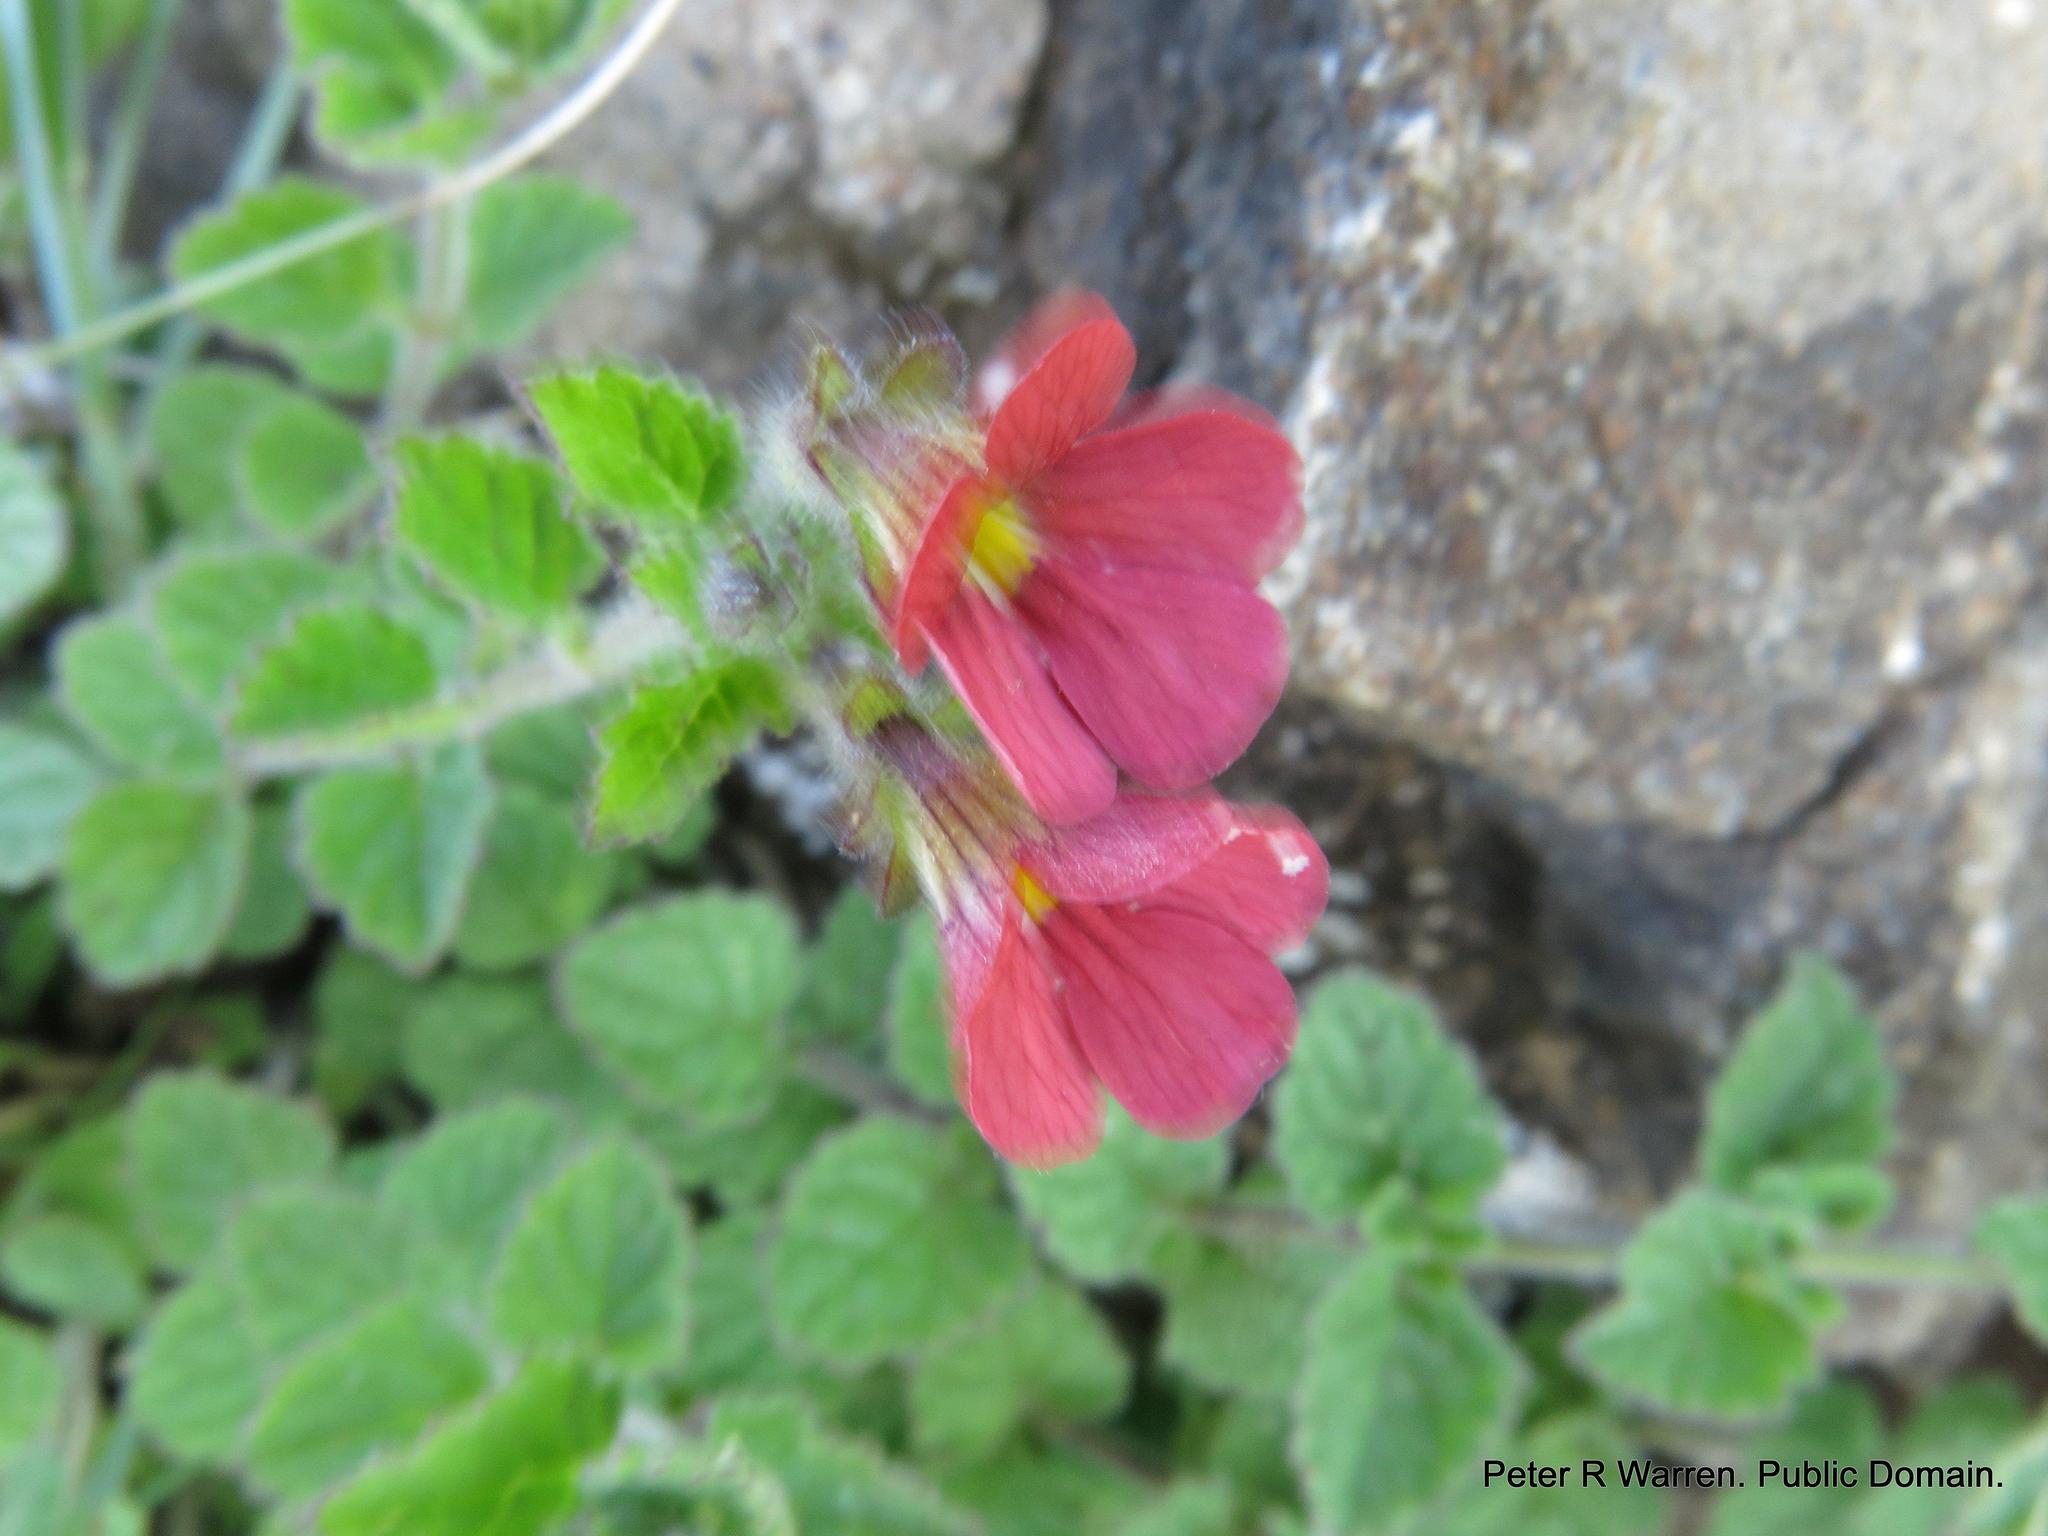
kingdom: Plantae
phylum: Tracheophyta
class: Magnoliopsida
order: Lamiales
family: Scrophulariaceae
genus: Jamesbrittenia
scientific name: Jamesbrittenia breviflora
